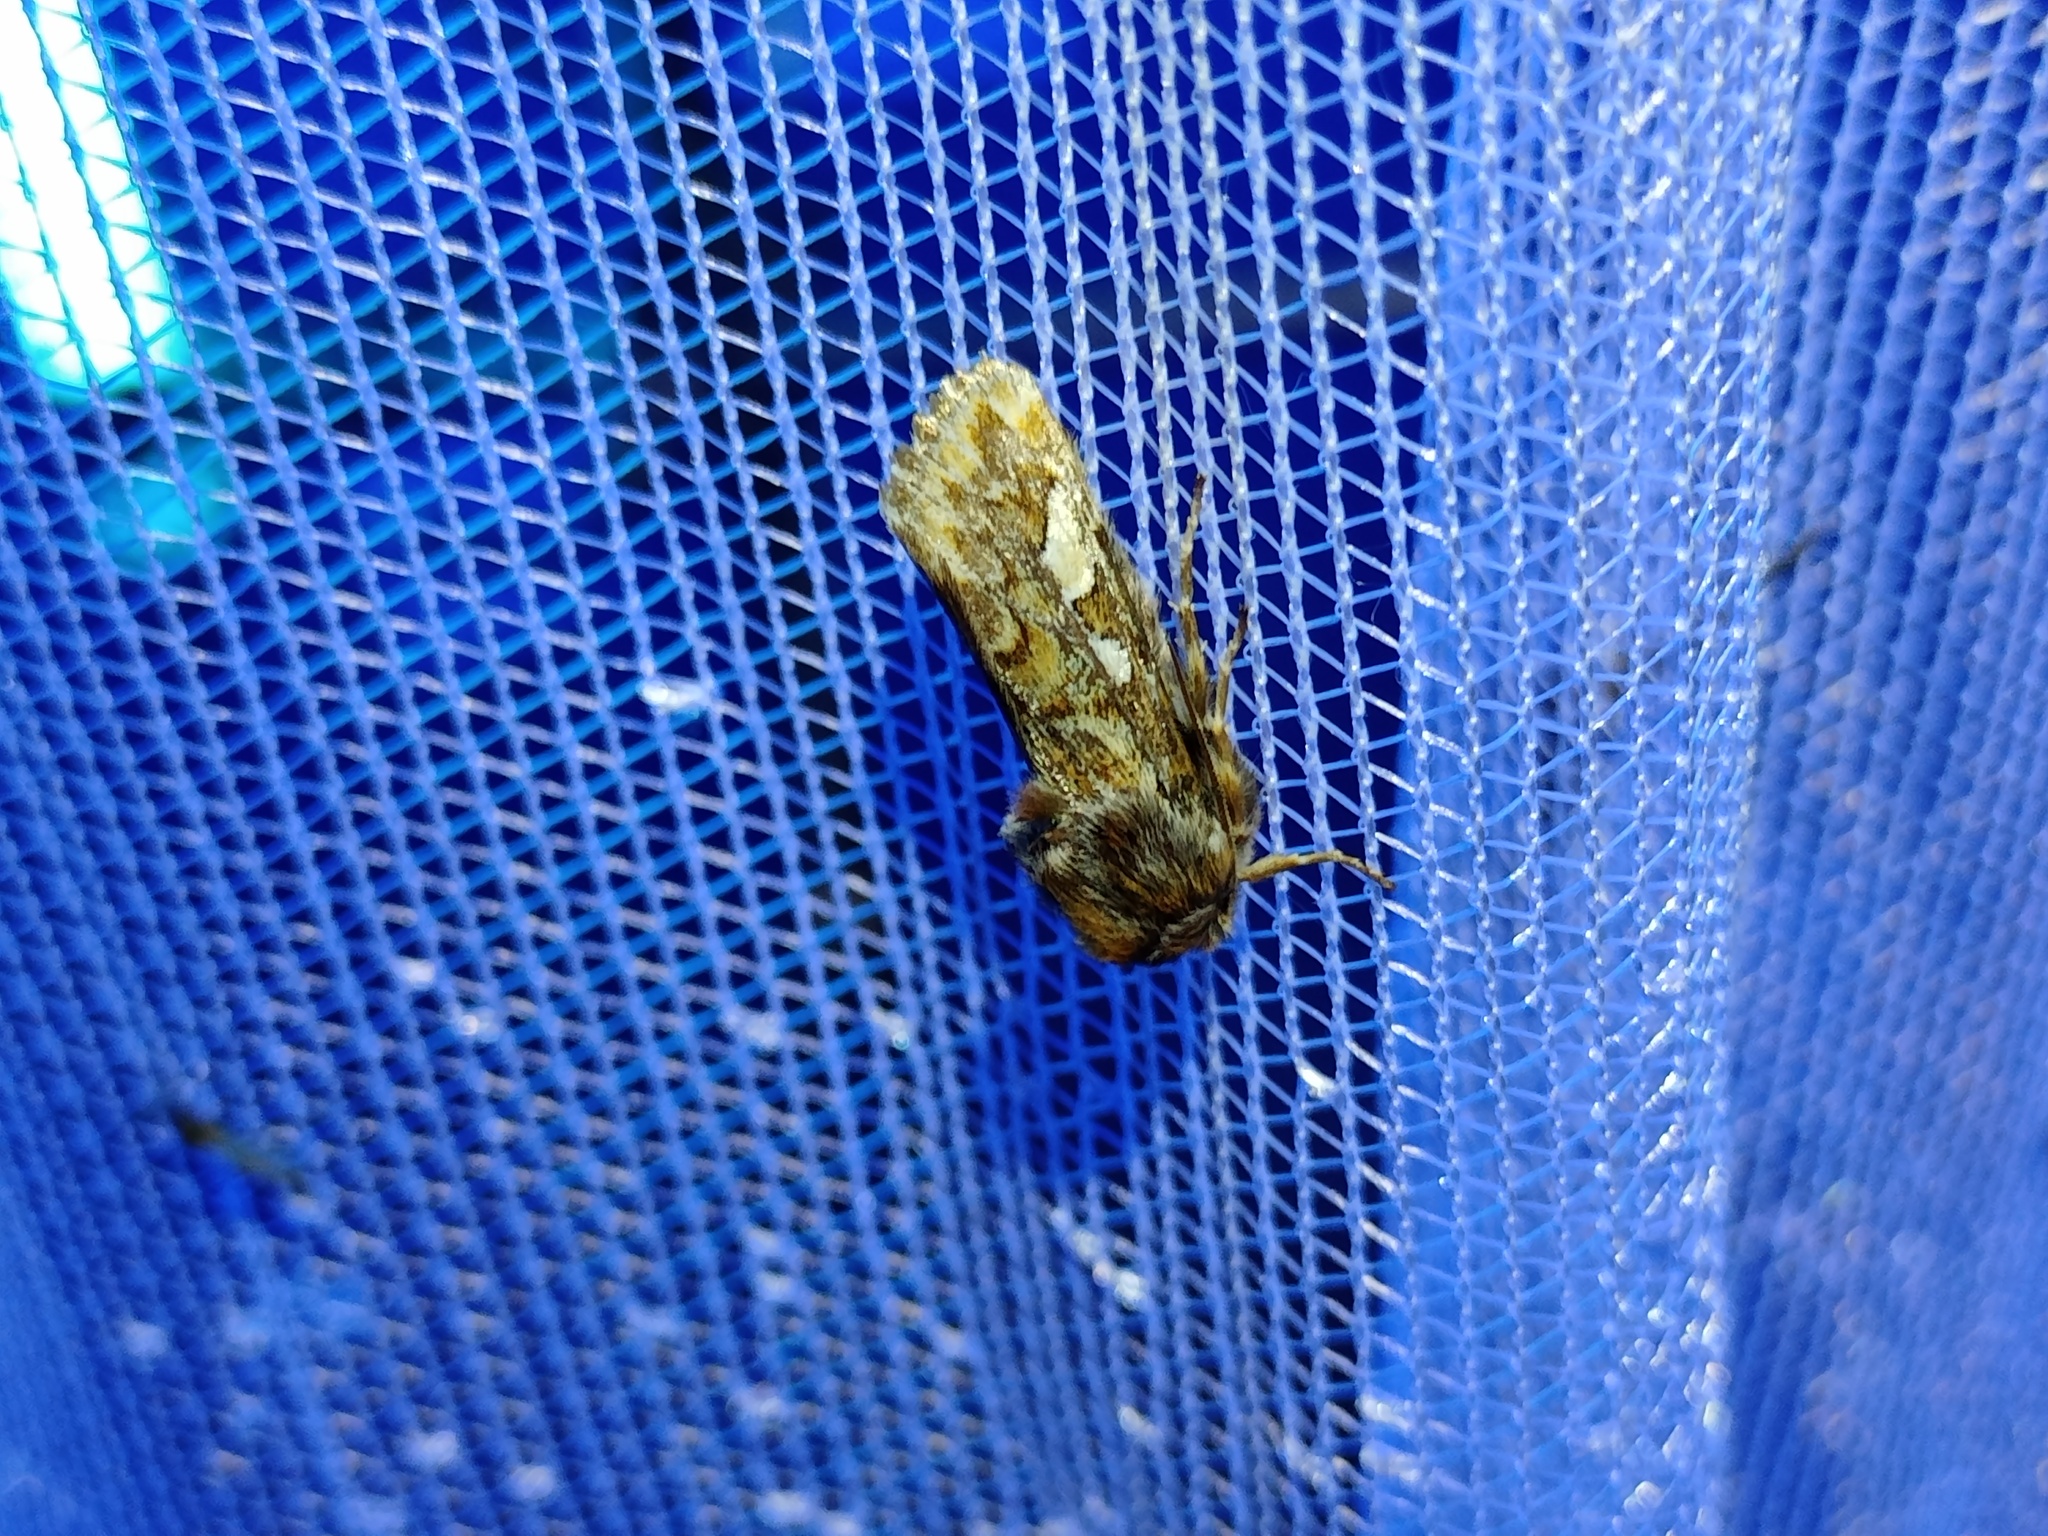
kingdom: Animalia
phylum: Arthropoda
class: Insecta
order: Lepidoptera
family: Noctuidae
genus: Panolis
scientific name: Panolis flammea
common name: Pine beauty
